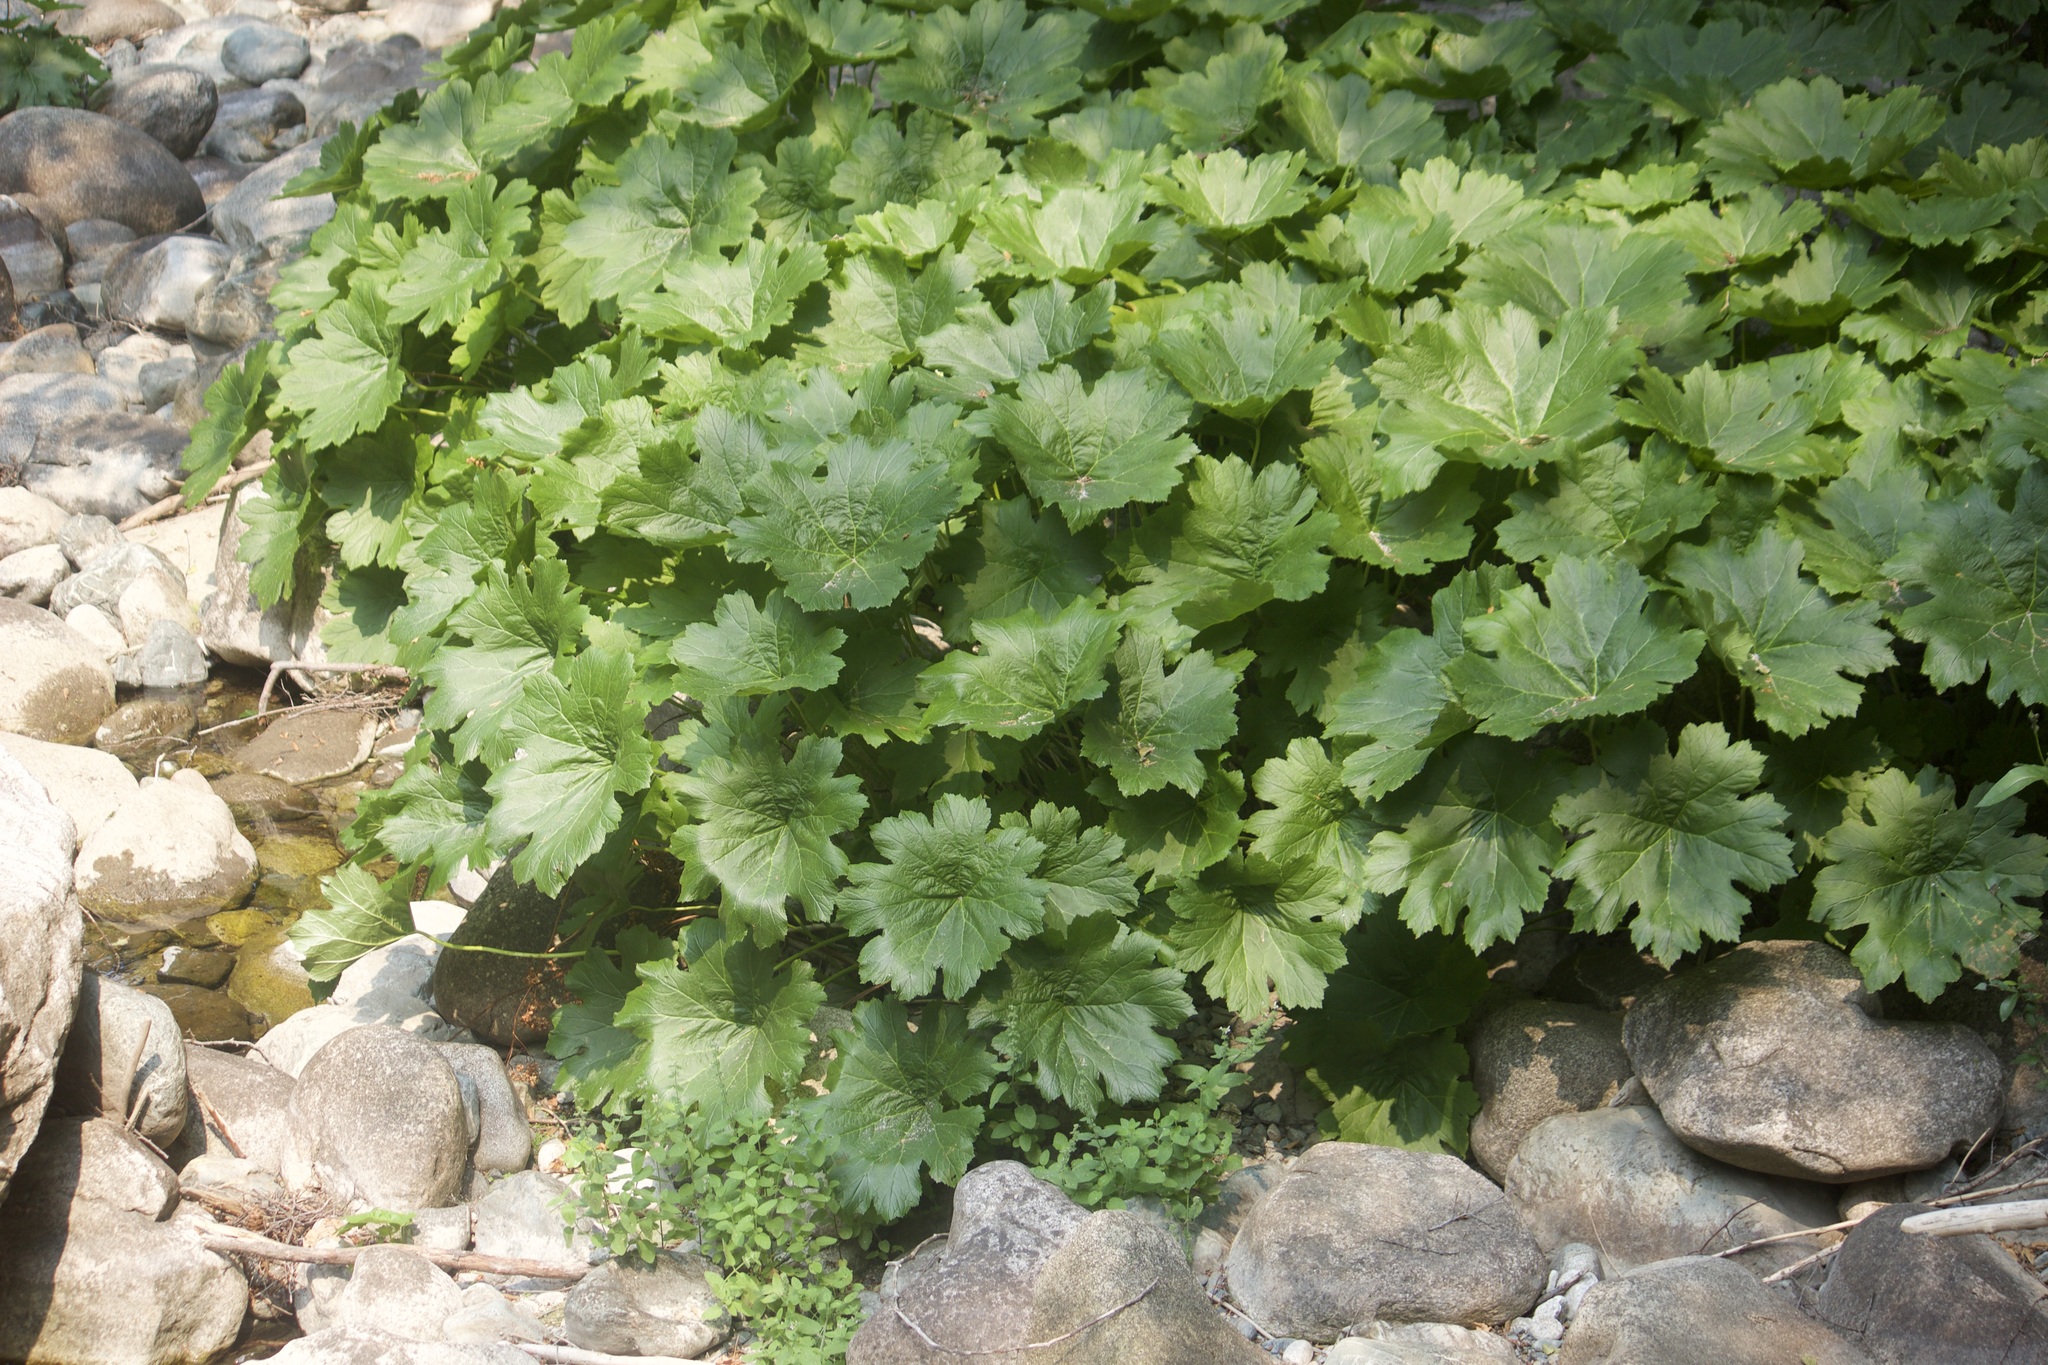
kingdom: Plantae
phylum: Tracheophyta
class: Magnoliopsida
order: Saxifragales
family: Saxifragaceae
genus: Darmera
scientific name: Darmera peltata
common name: Indian-rhubarb
